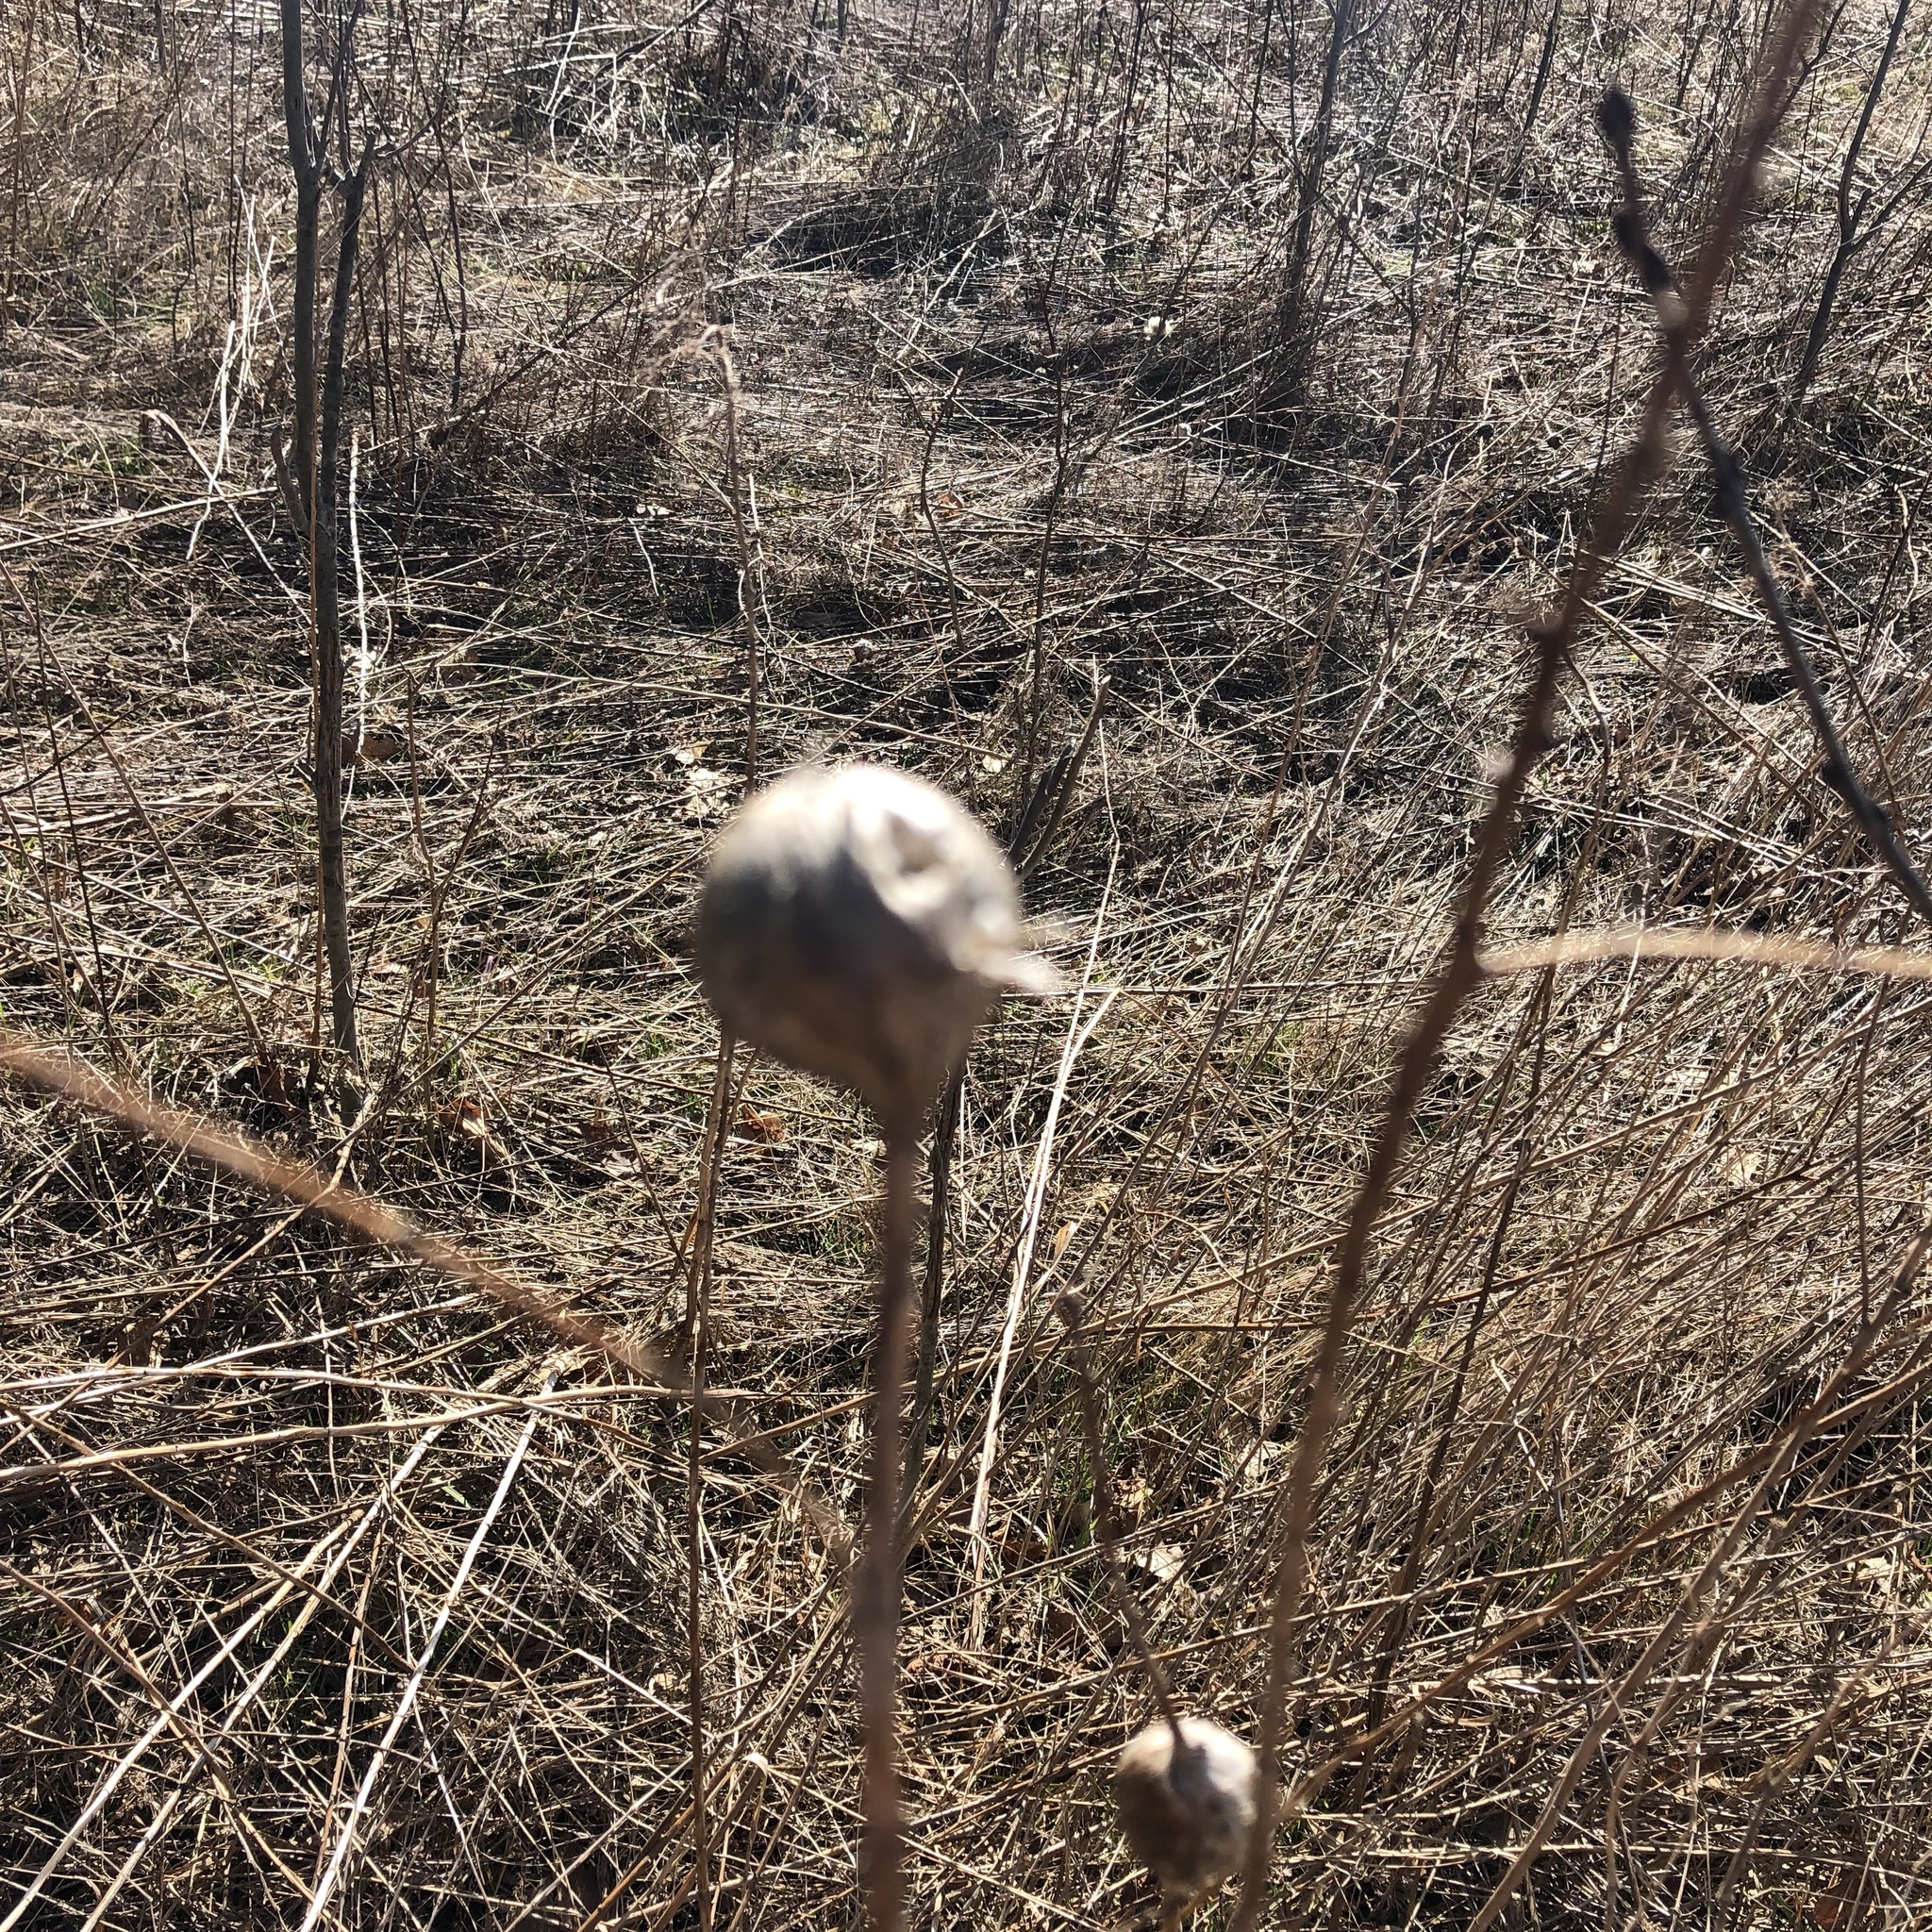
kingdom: Animalia
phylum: Arthropoda
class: Insecta
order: Diptera
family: Tephritidae
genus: Eurosta
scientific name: Eurosta solidaginis
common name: Goldenrod gall fly
